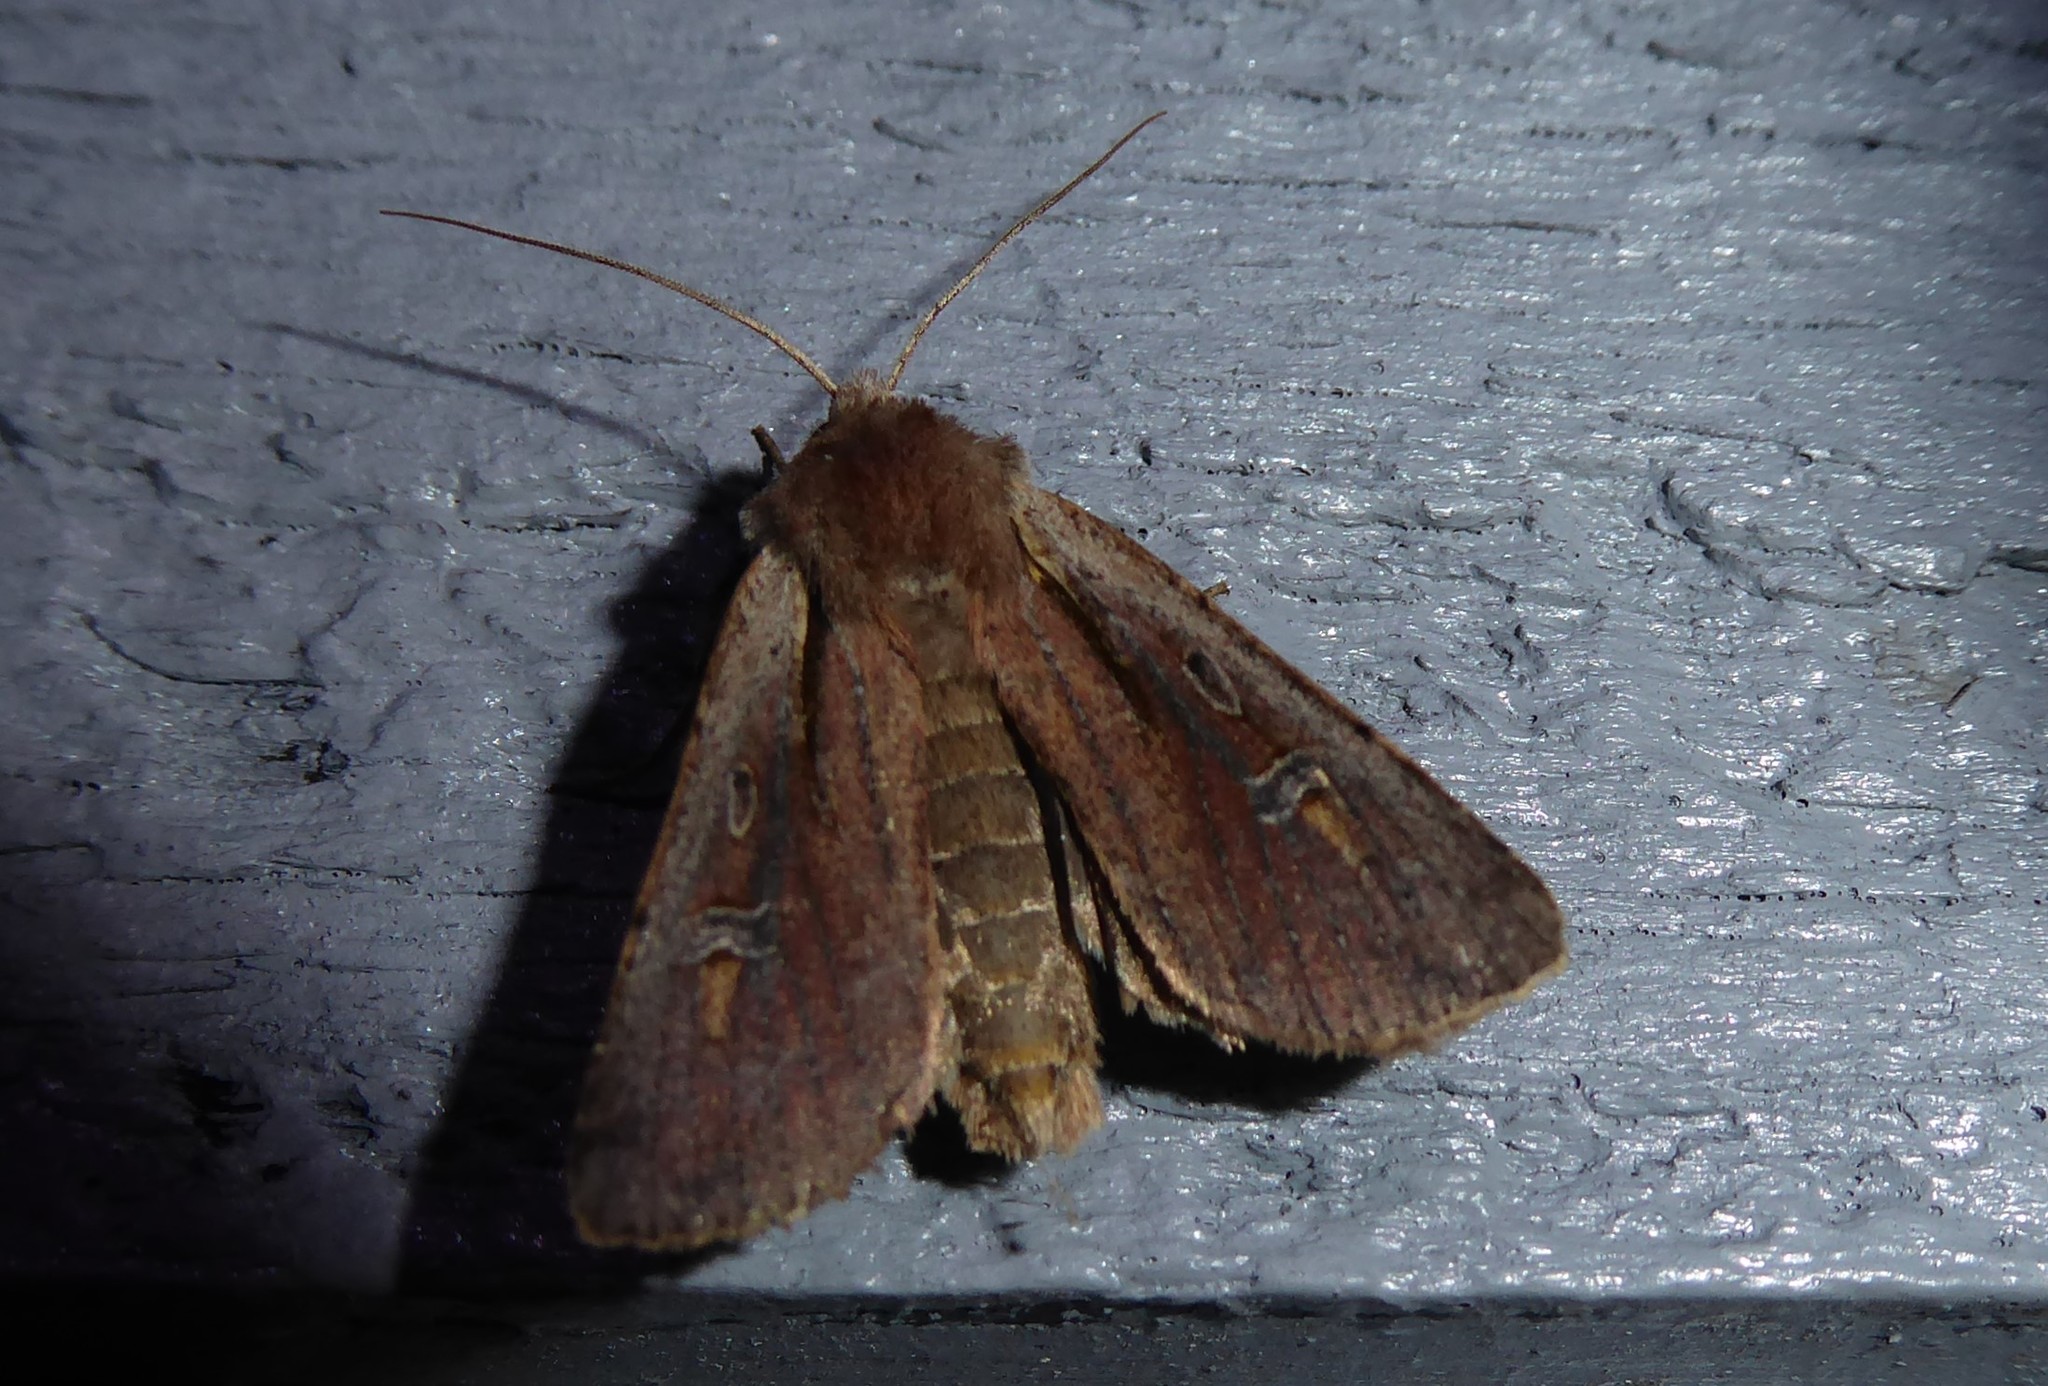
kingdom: Animalia
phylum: Arthropoda
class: Insecta
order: Lepidoptera
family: Noctuidae
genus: Ichneutica
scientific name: Ichneutica atristriga
